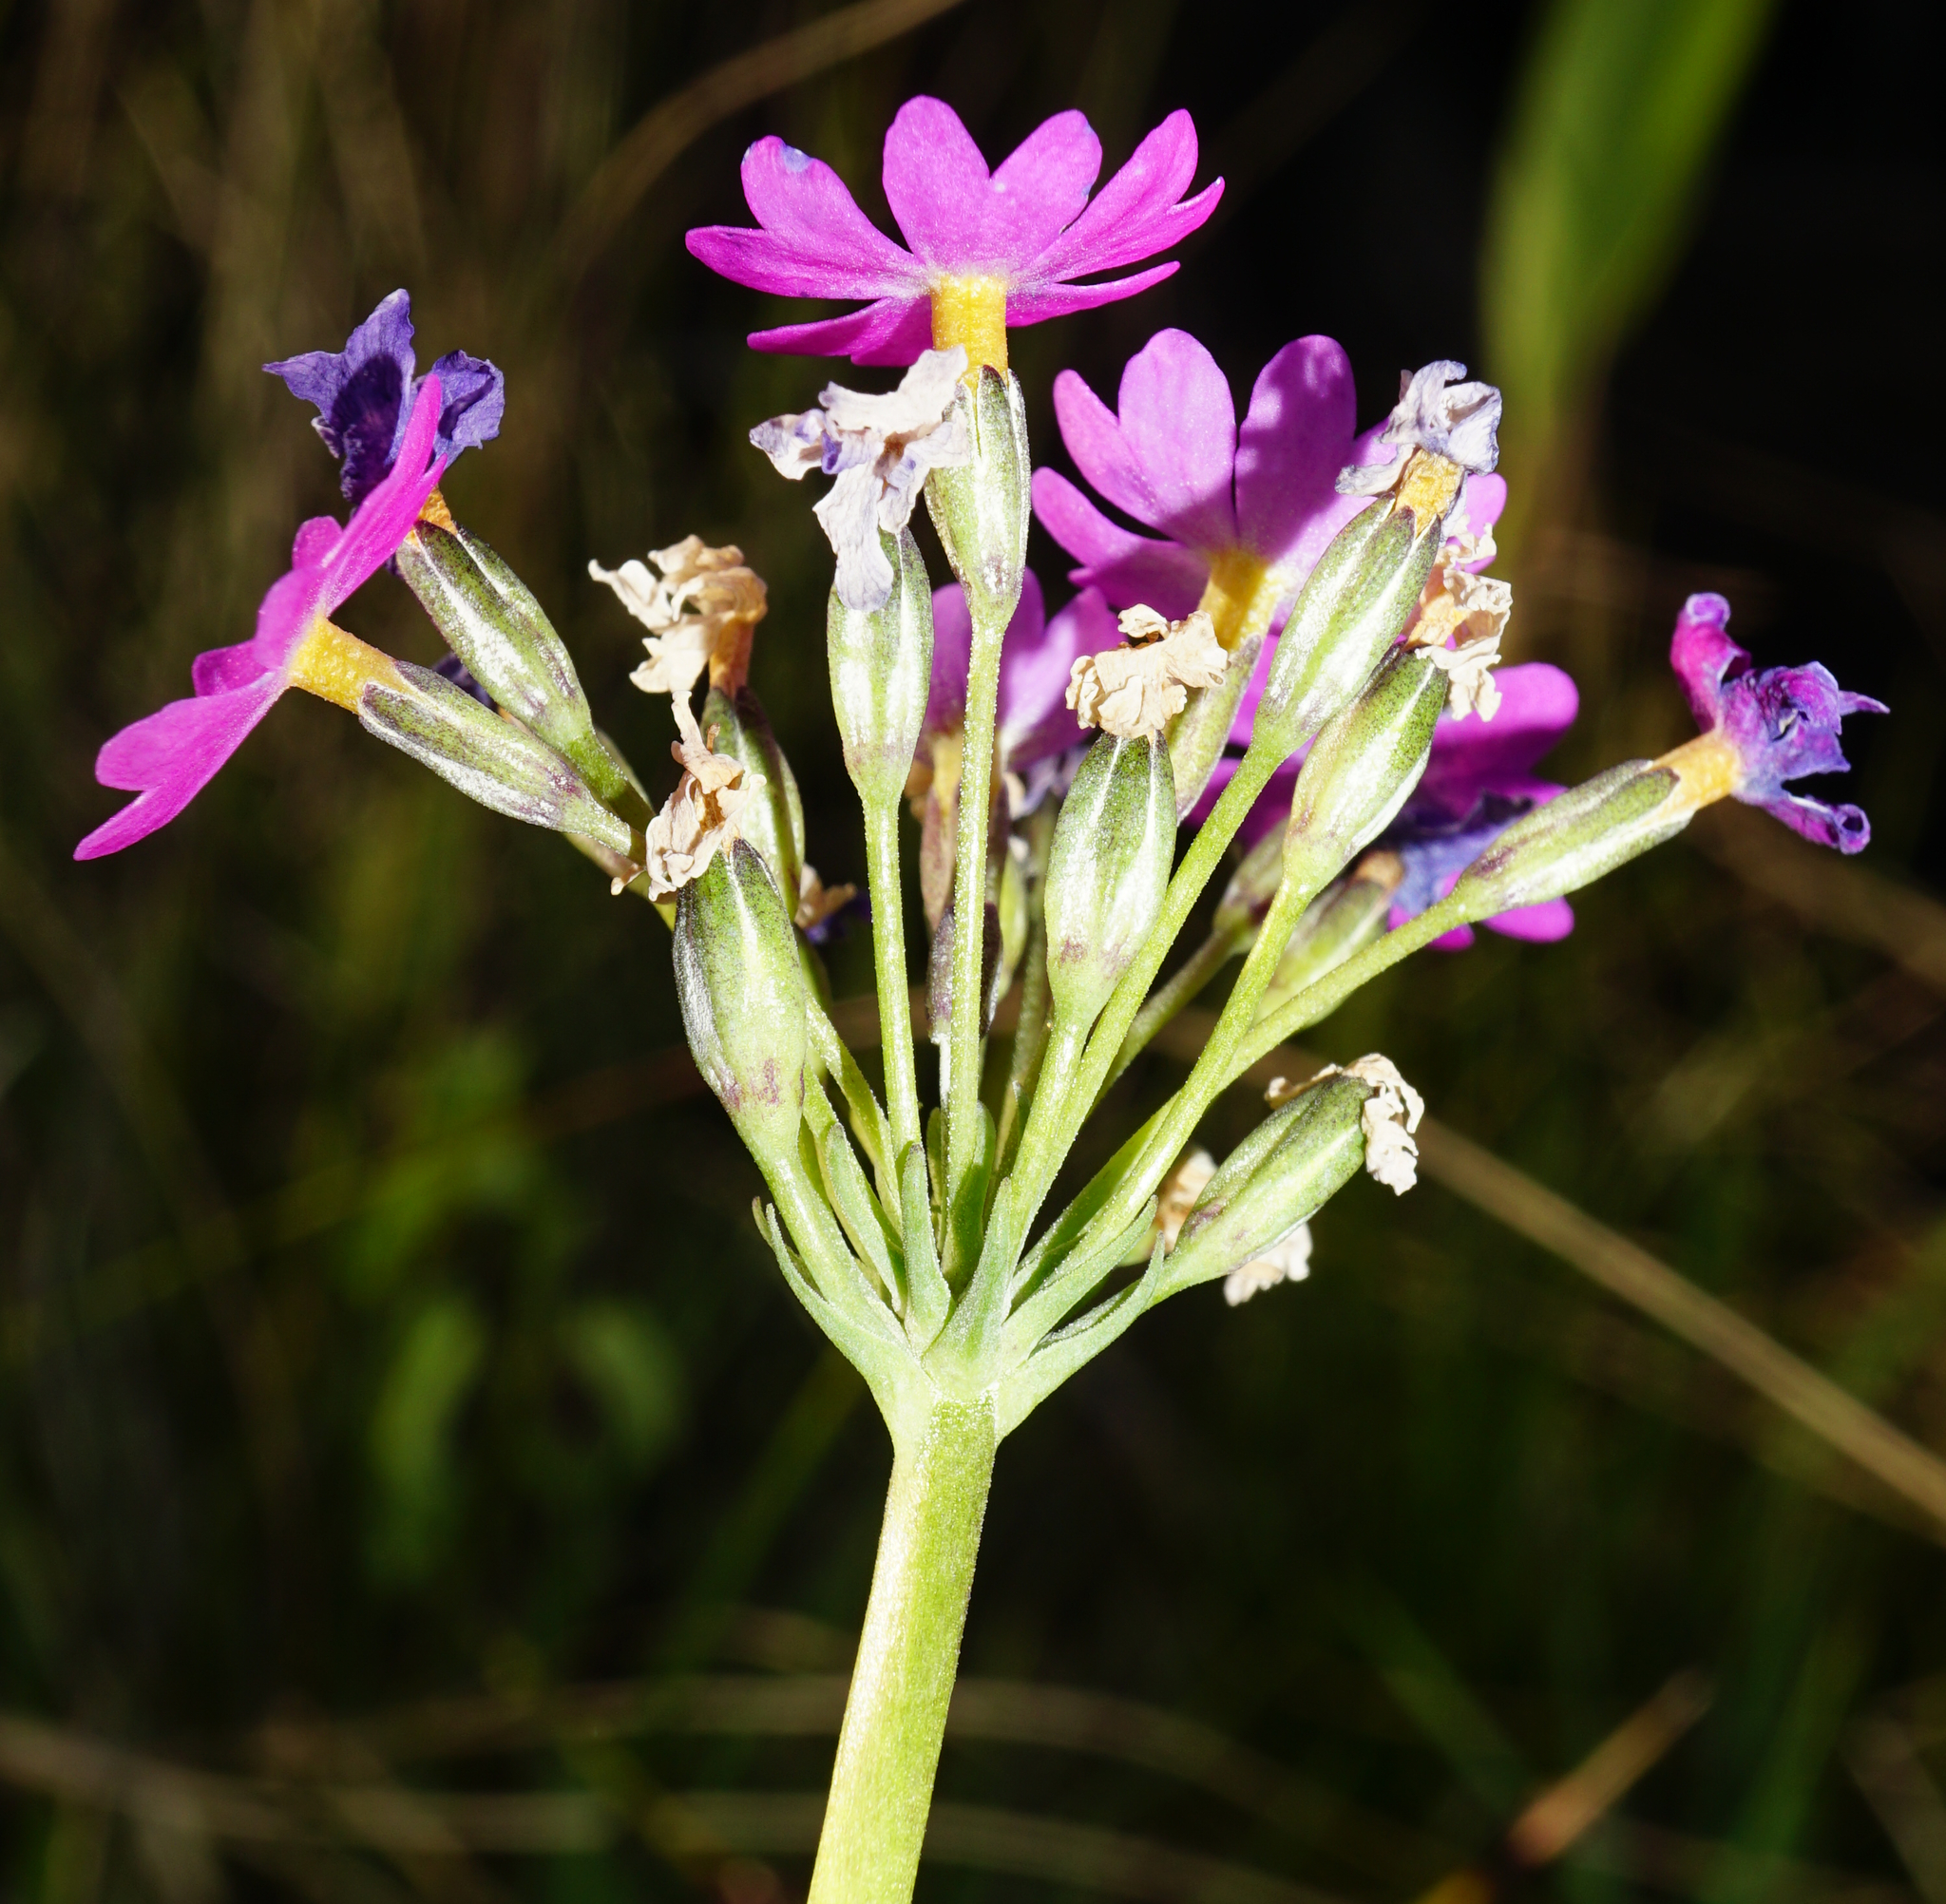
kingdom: Plantae
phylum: Tracheophyta
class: Magnoliopsida
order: Ericales
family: Primulaceae
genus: Primula
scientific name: Primula farinosa
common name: Bird's-eye primrose
